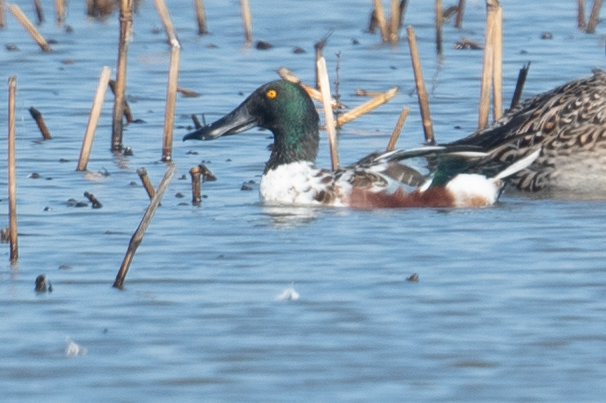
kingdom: Animalia
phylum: Chordata
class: Aves
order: Anseriformes
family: Anatidae
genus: Spatula
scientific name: Spatula clypeata
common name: Northern shoveler
